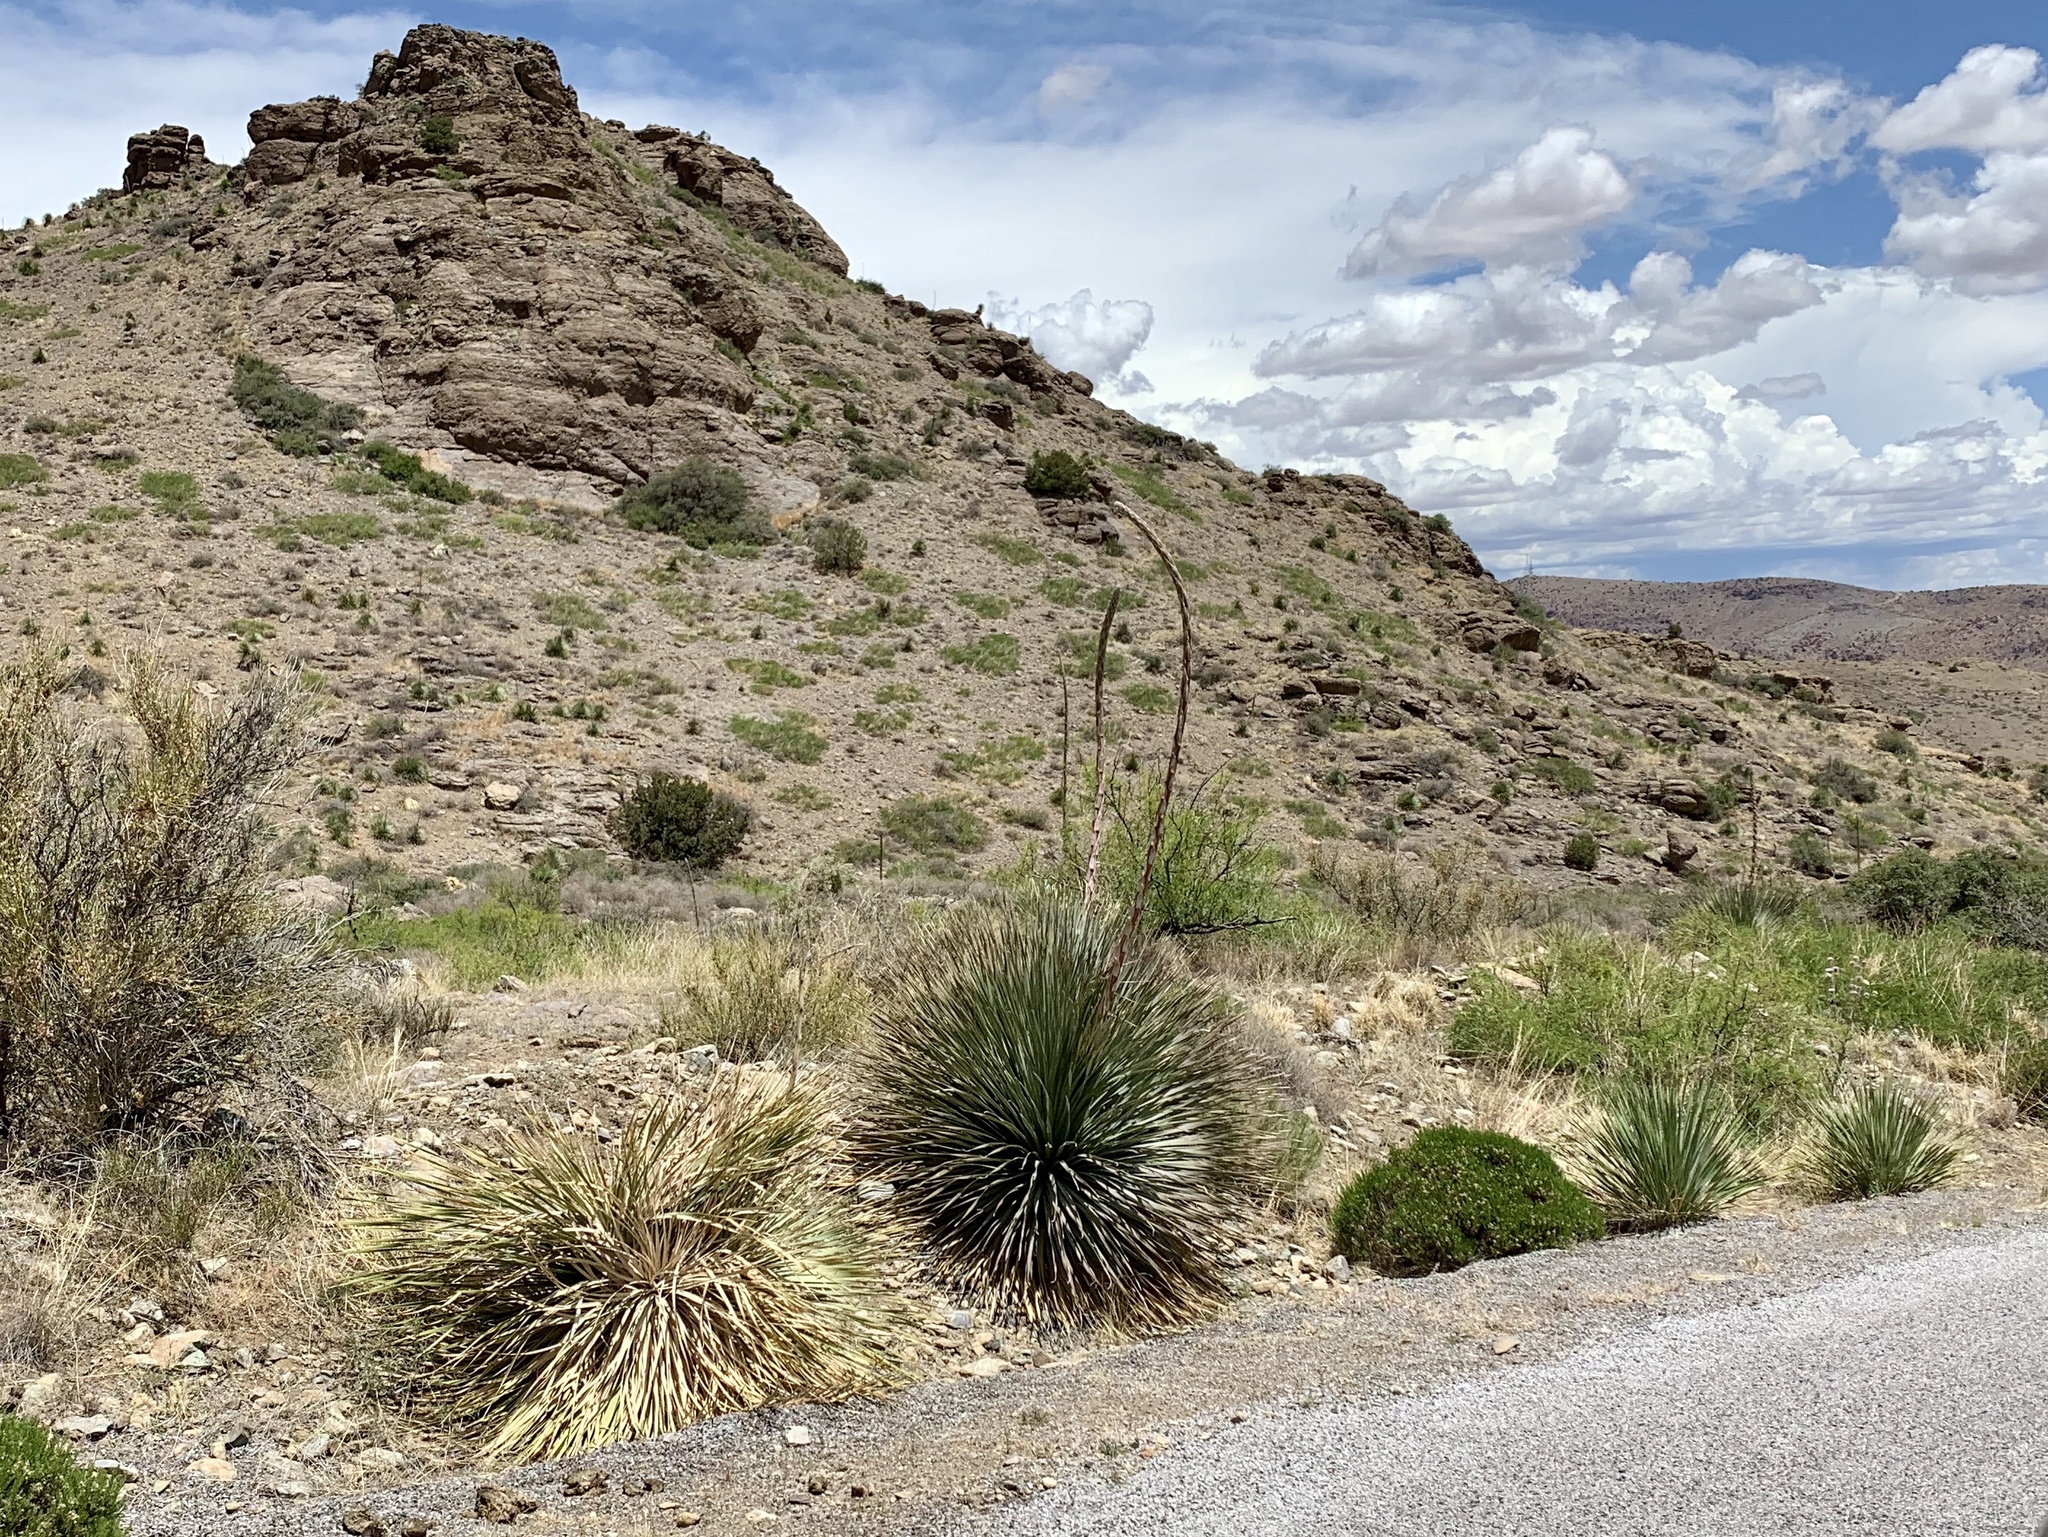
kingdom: Plantae
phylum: Tracheophyta
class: Liliopsida
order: Asparagales
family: Asparagaceae
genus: Dasylirion
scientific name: Dasylirion wheeleri
